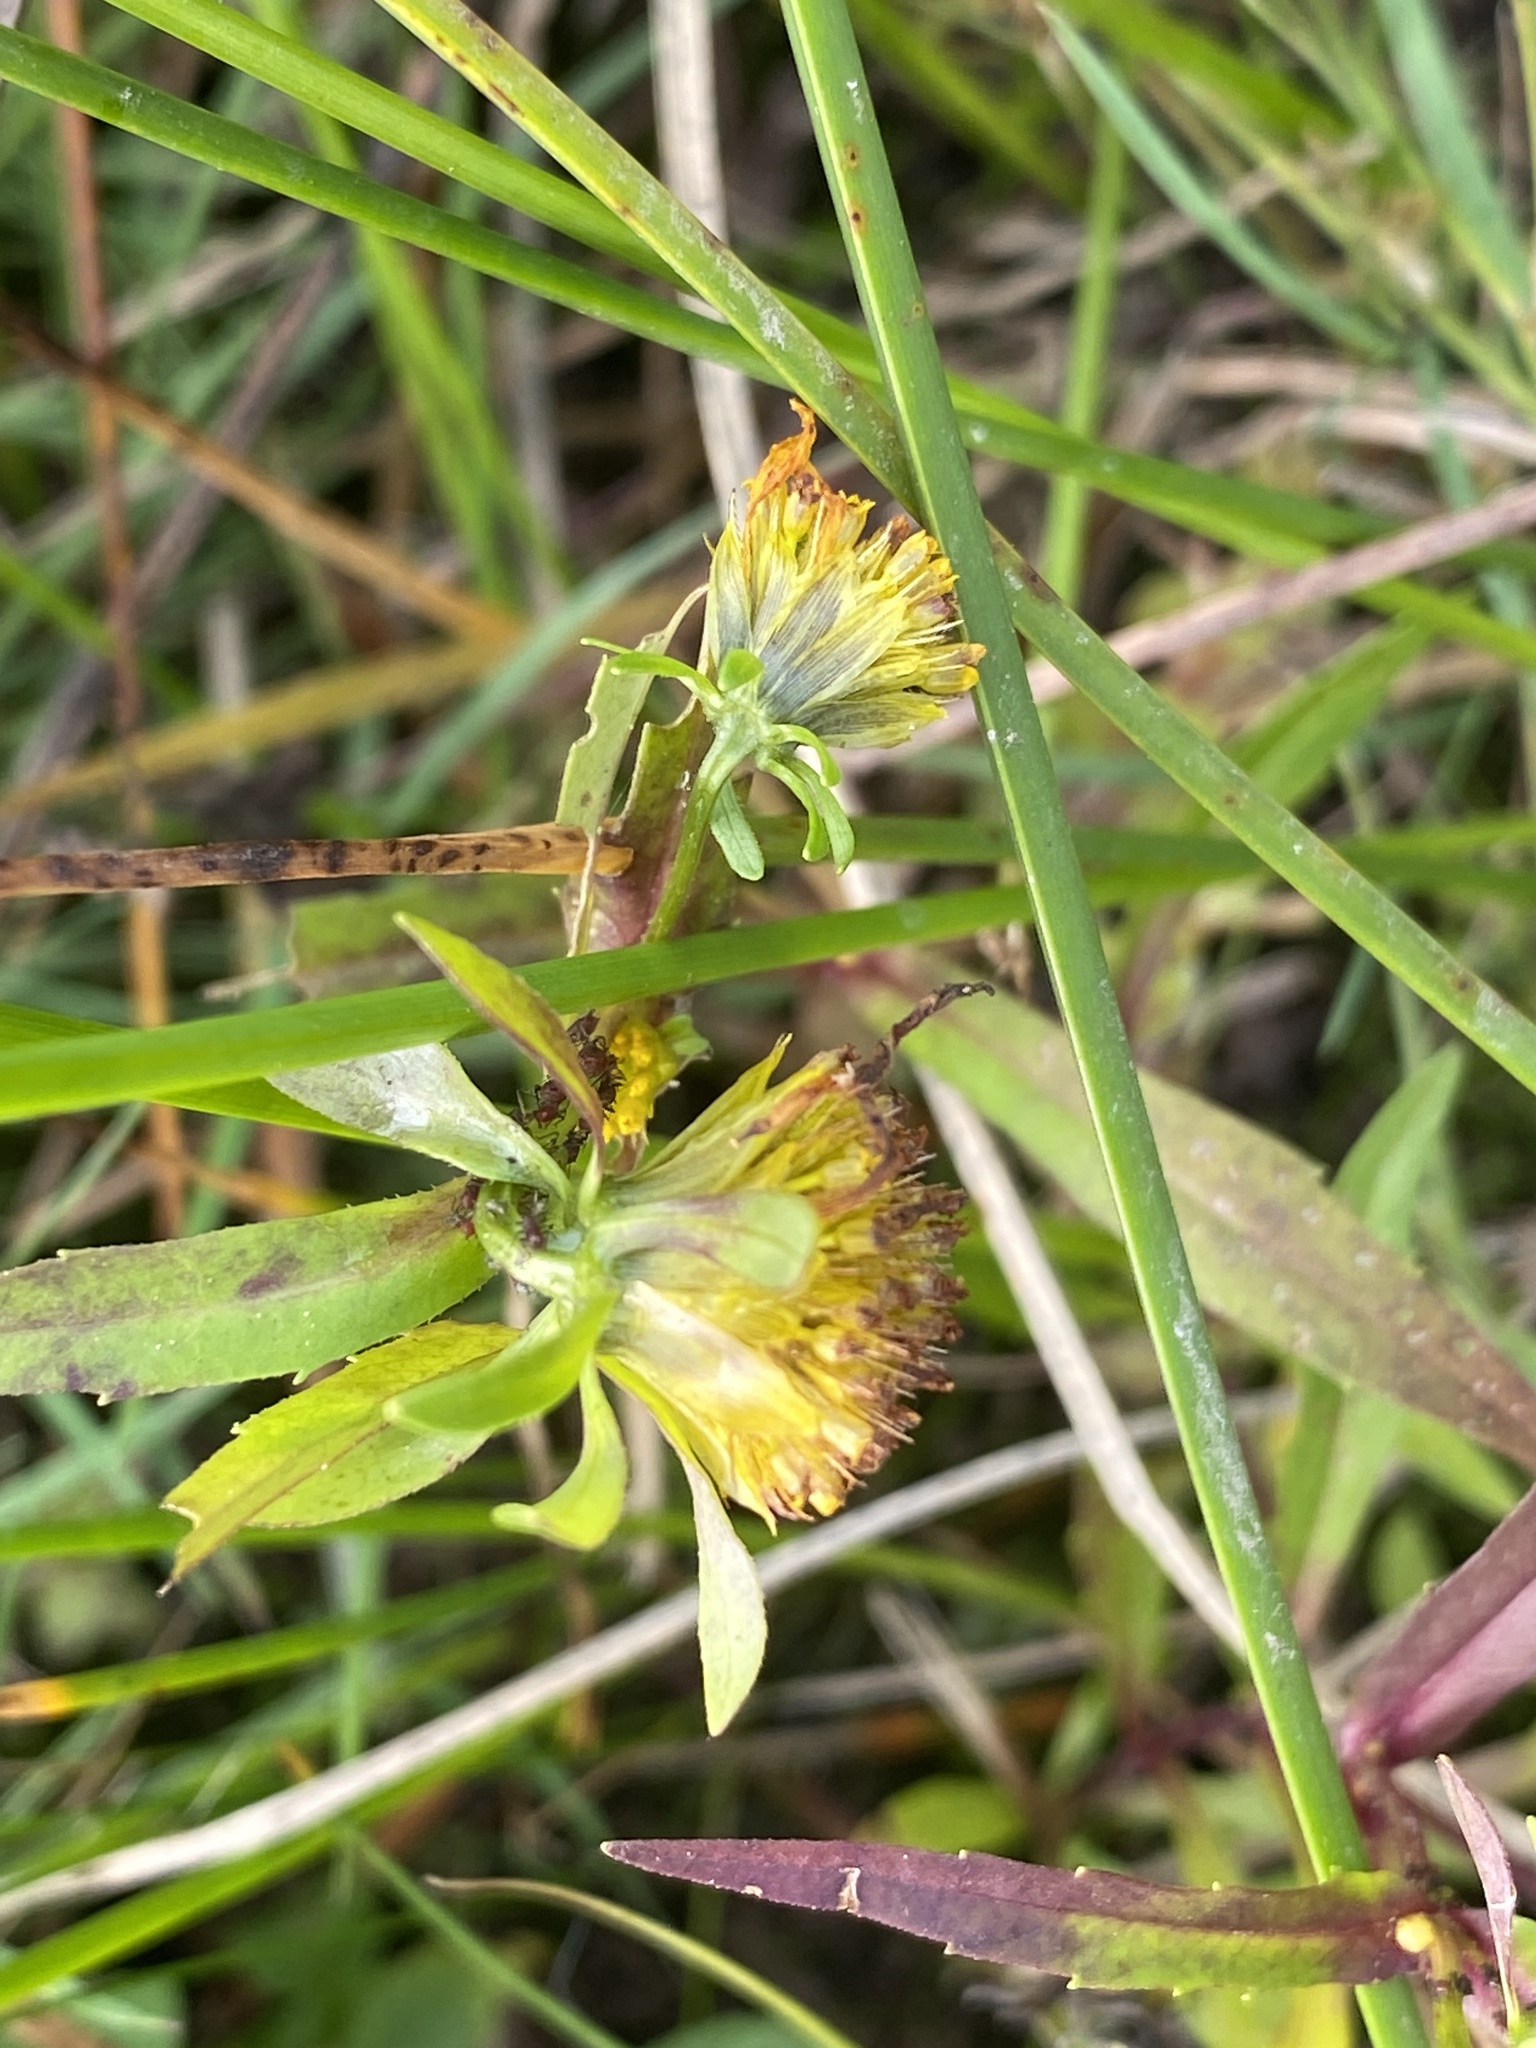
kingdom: Plantae
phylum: Tracheophyta
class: Magnoliopsida
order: Asterales
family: Asteraceae
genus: Bidens
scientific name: Bidens cernua
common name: Nodding bur-marigold
